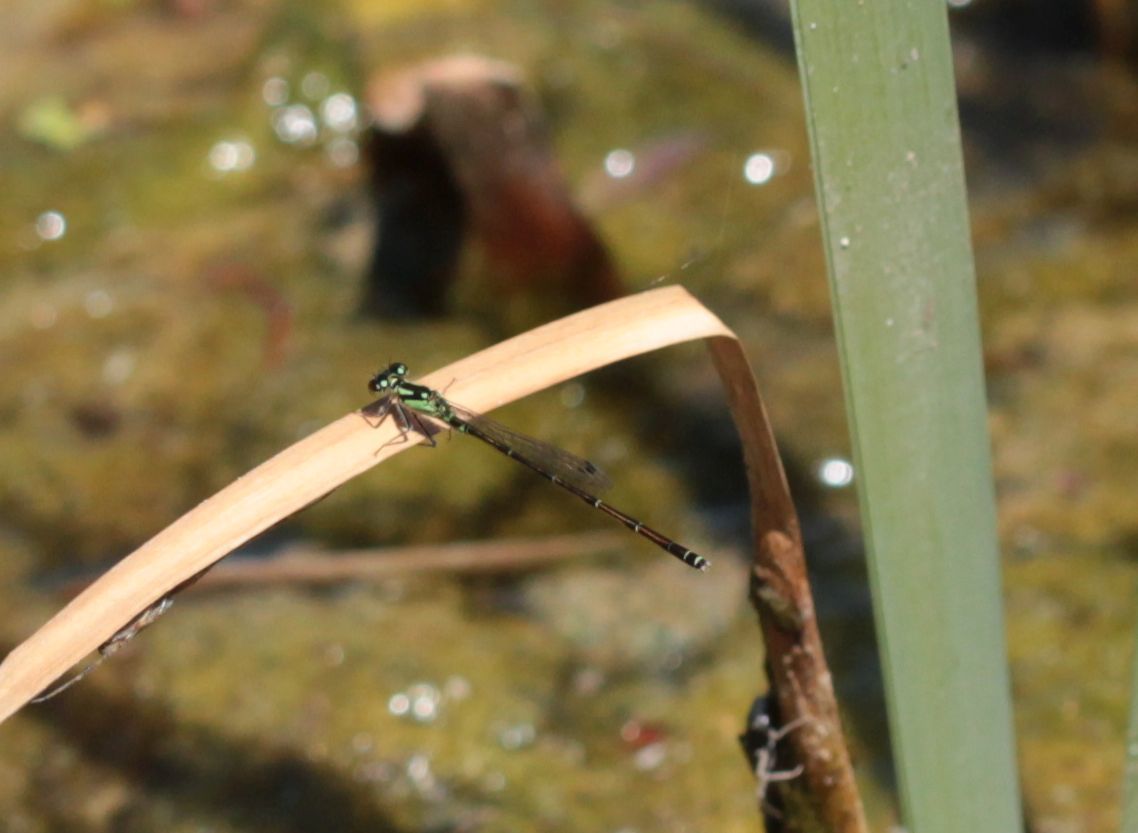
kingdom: Animalia
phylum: Arthropoda
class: Insecta
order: Odonata
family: Coenagrionidae
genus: Ischnura
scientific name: Ischnura posita
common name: Fragile forktail
